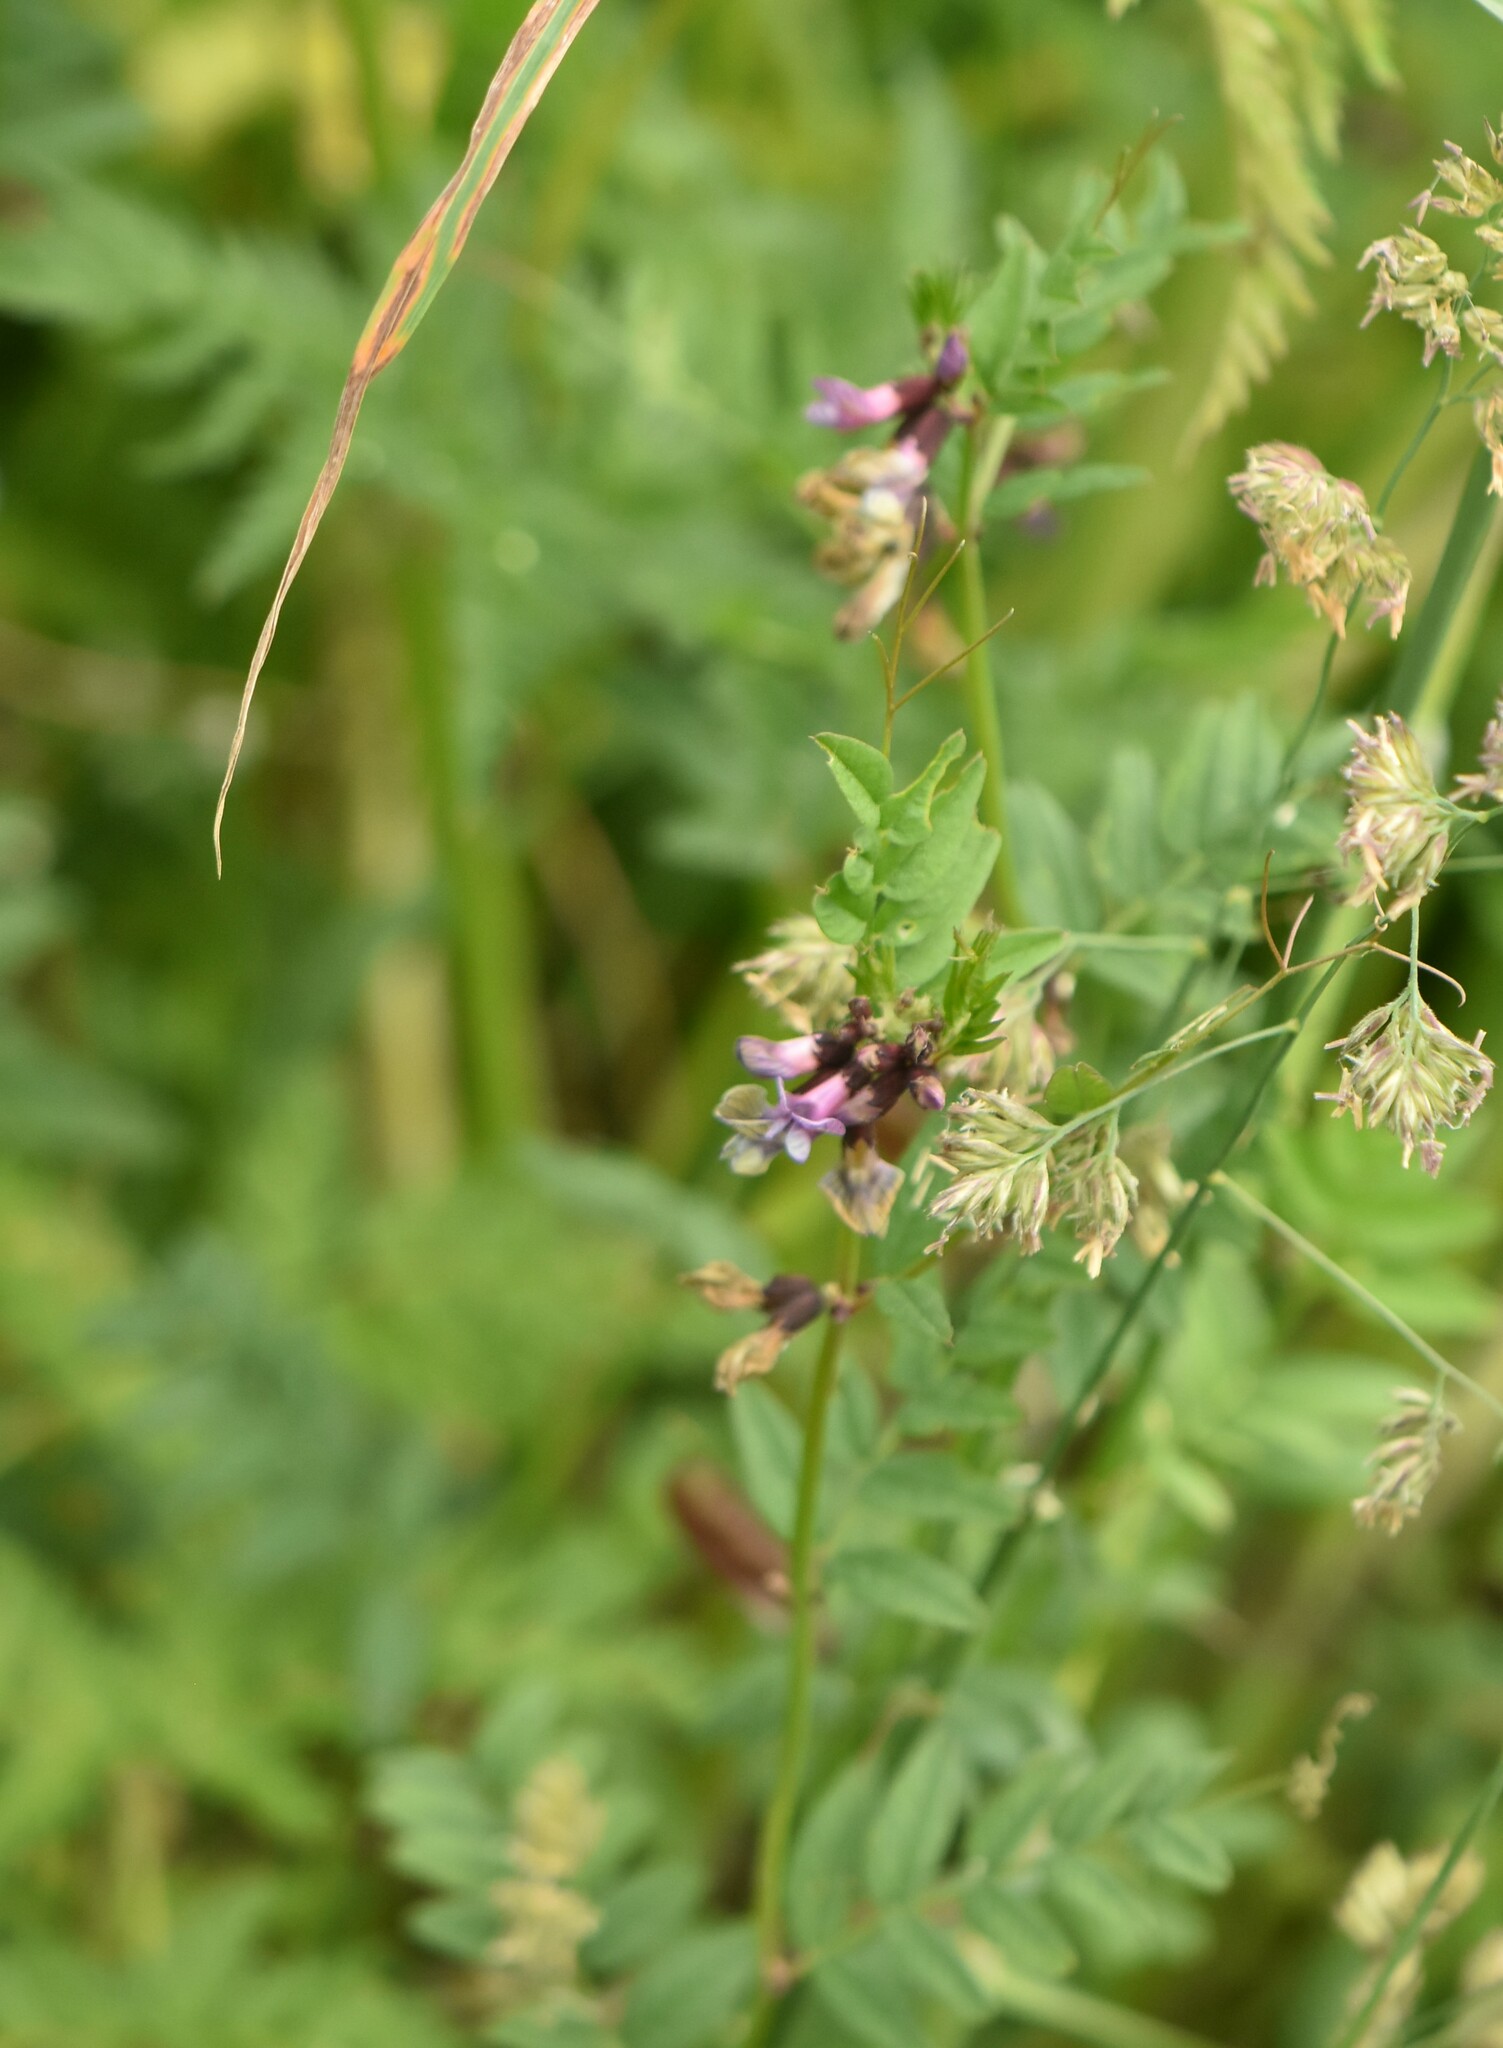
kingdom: Plantae
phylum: Tracheophyta
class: Magnoliopsida
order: Fabales
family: Fabaceae
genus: Vicia
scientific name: Vicia sepium
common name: Bush vetch
